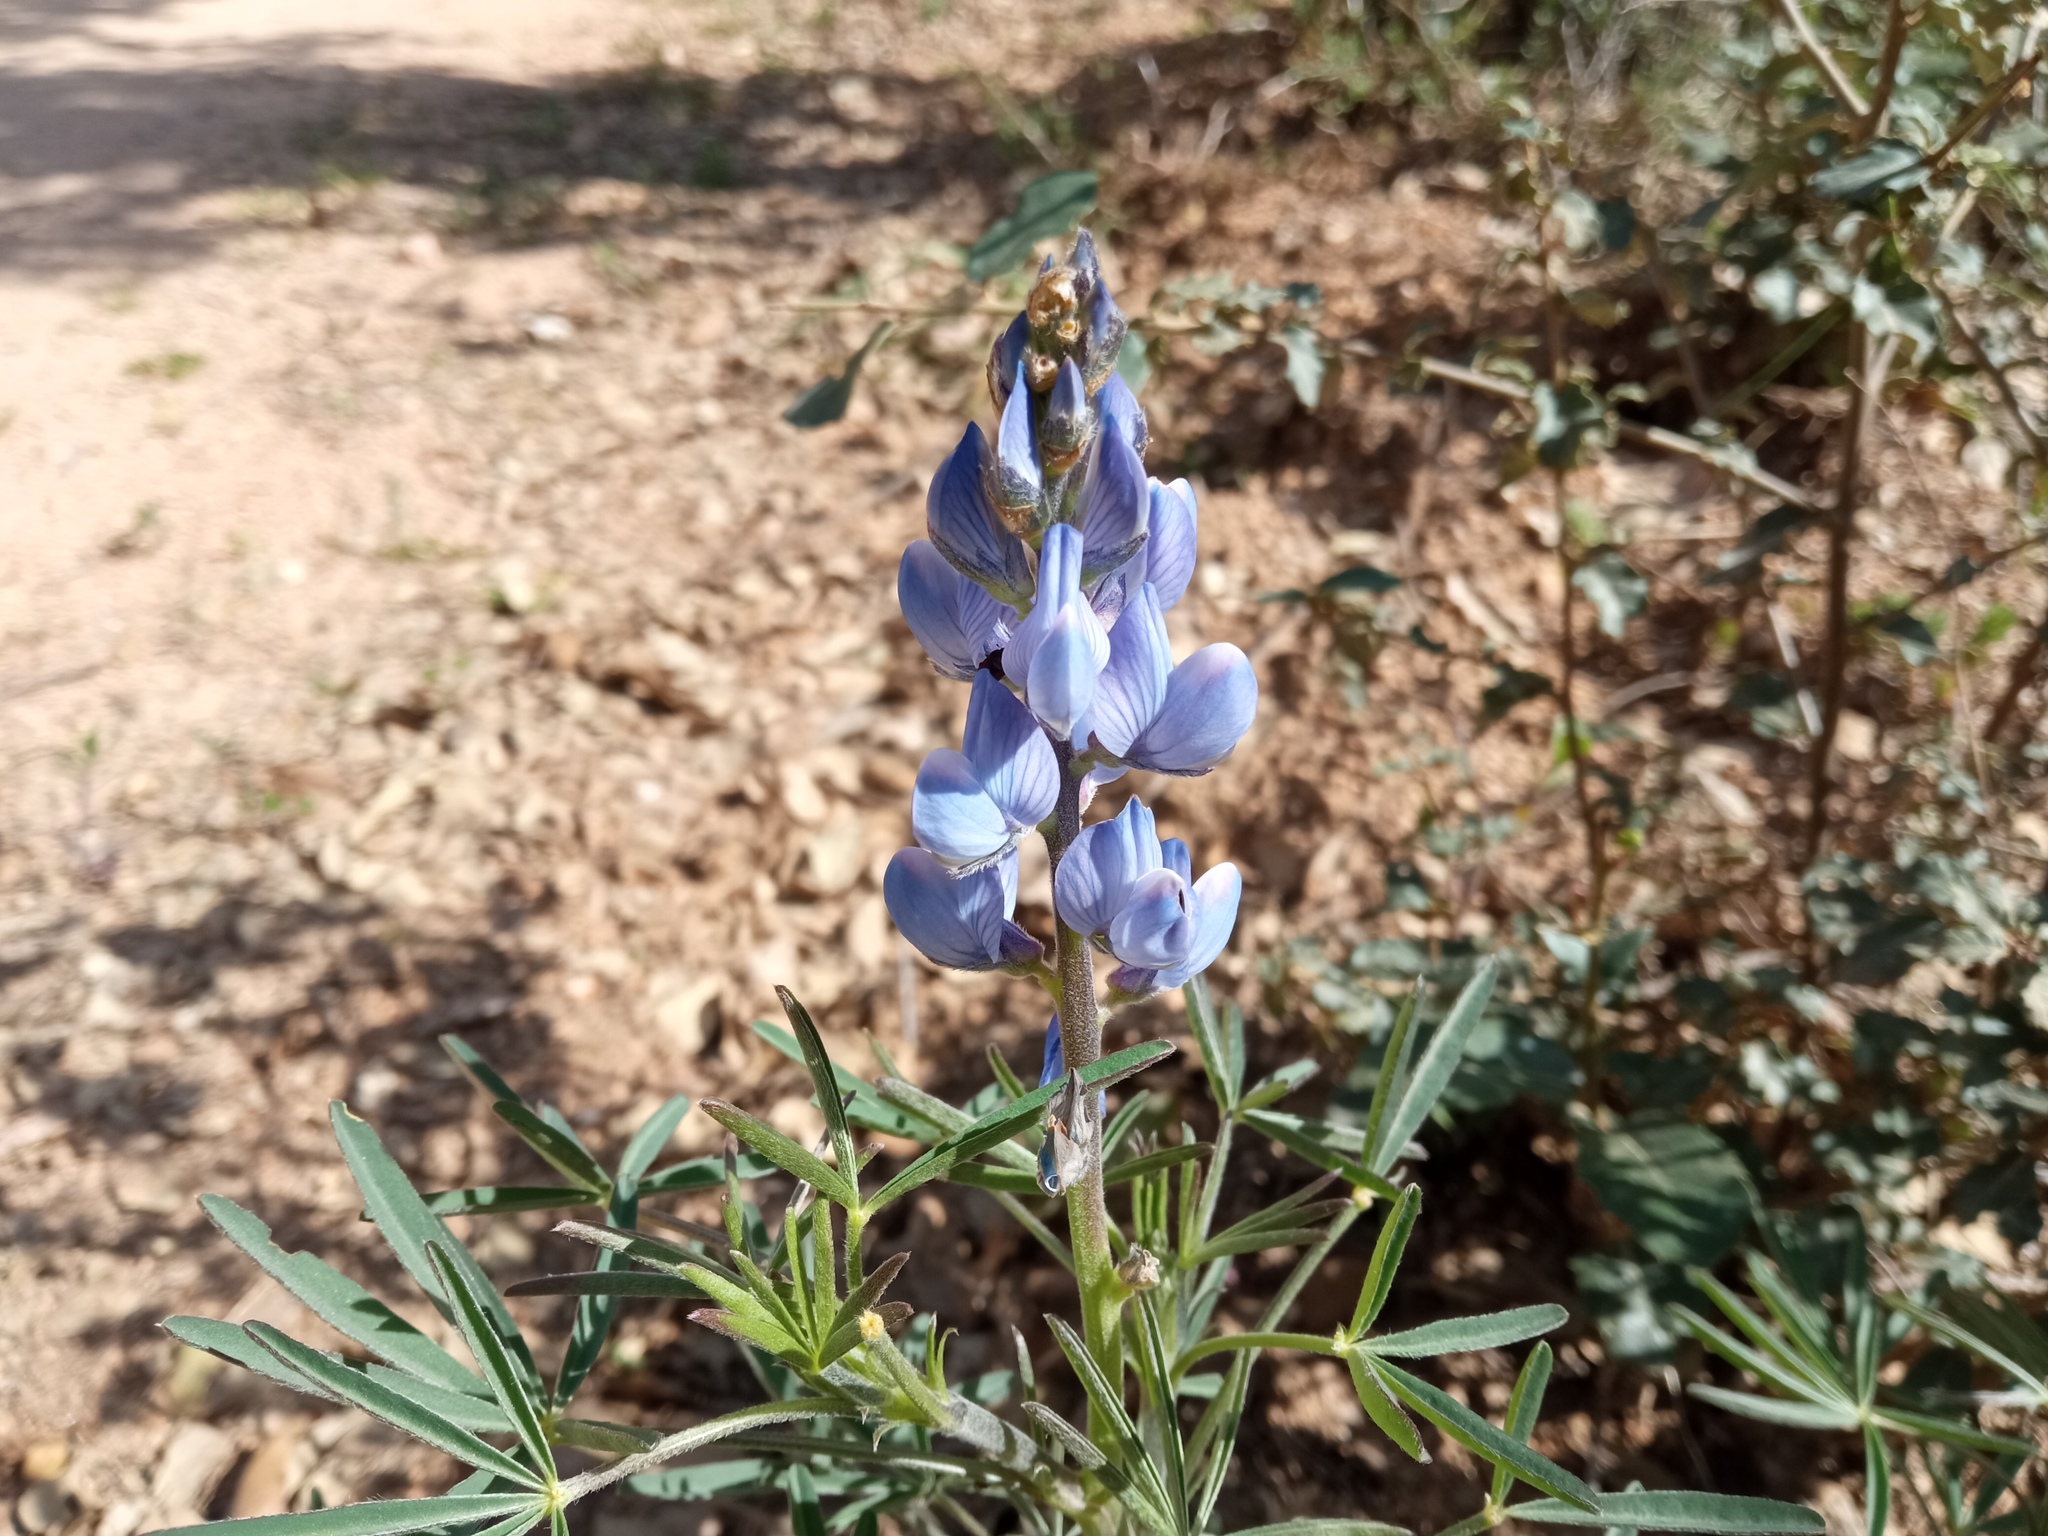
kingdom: Plantae
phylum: Tracheophyta
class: Magnoliopsida
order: Fabales
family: Fabaceae
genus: Lupinus
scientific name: Lupinus angustifolius
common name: Narrow-leaved lupin
